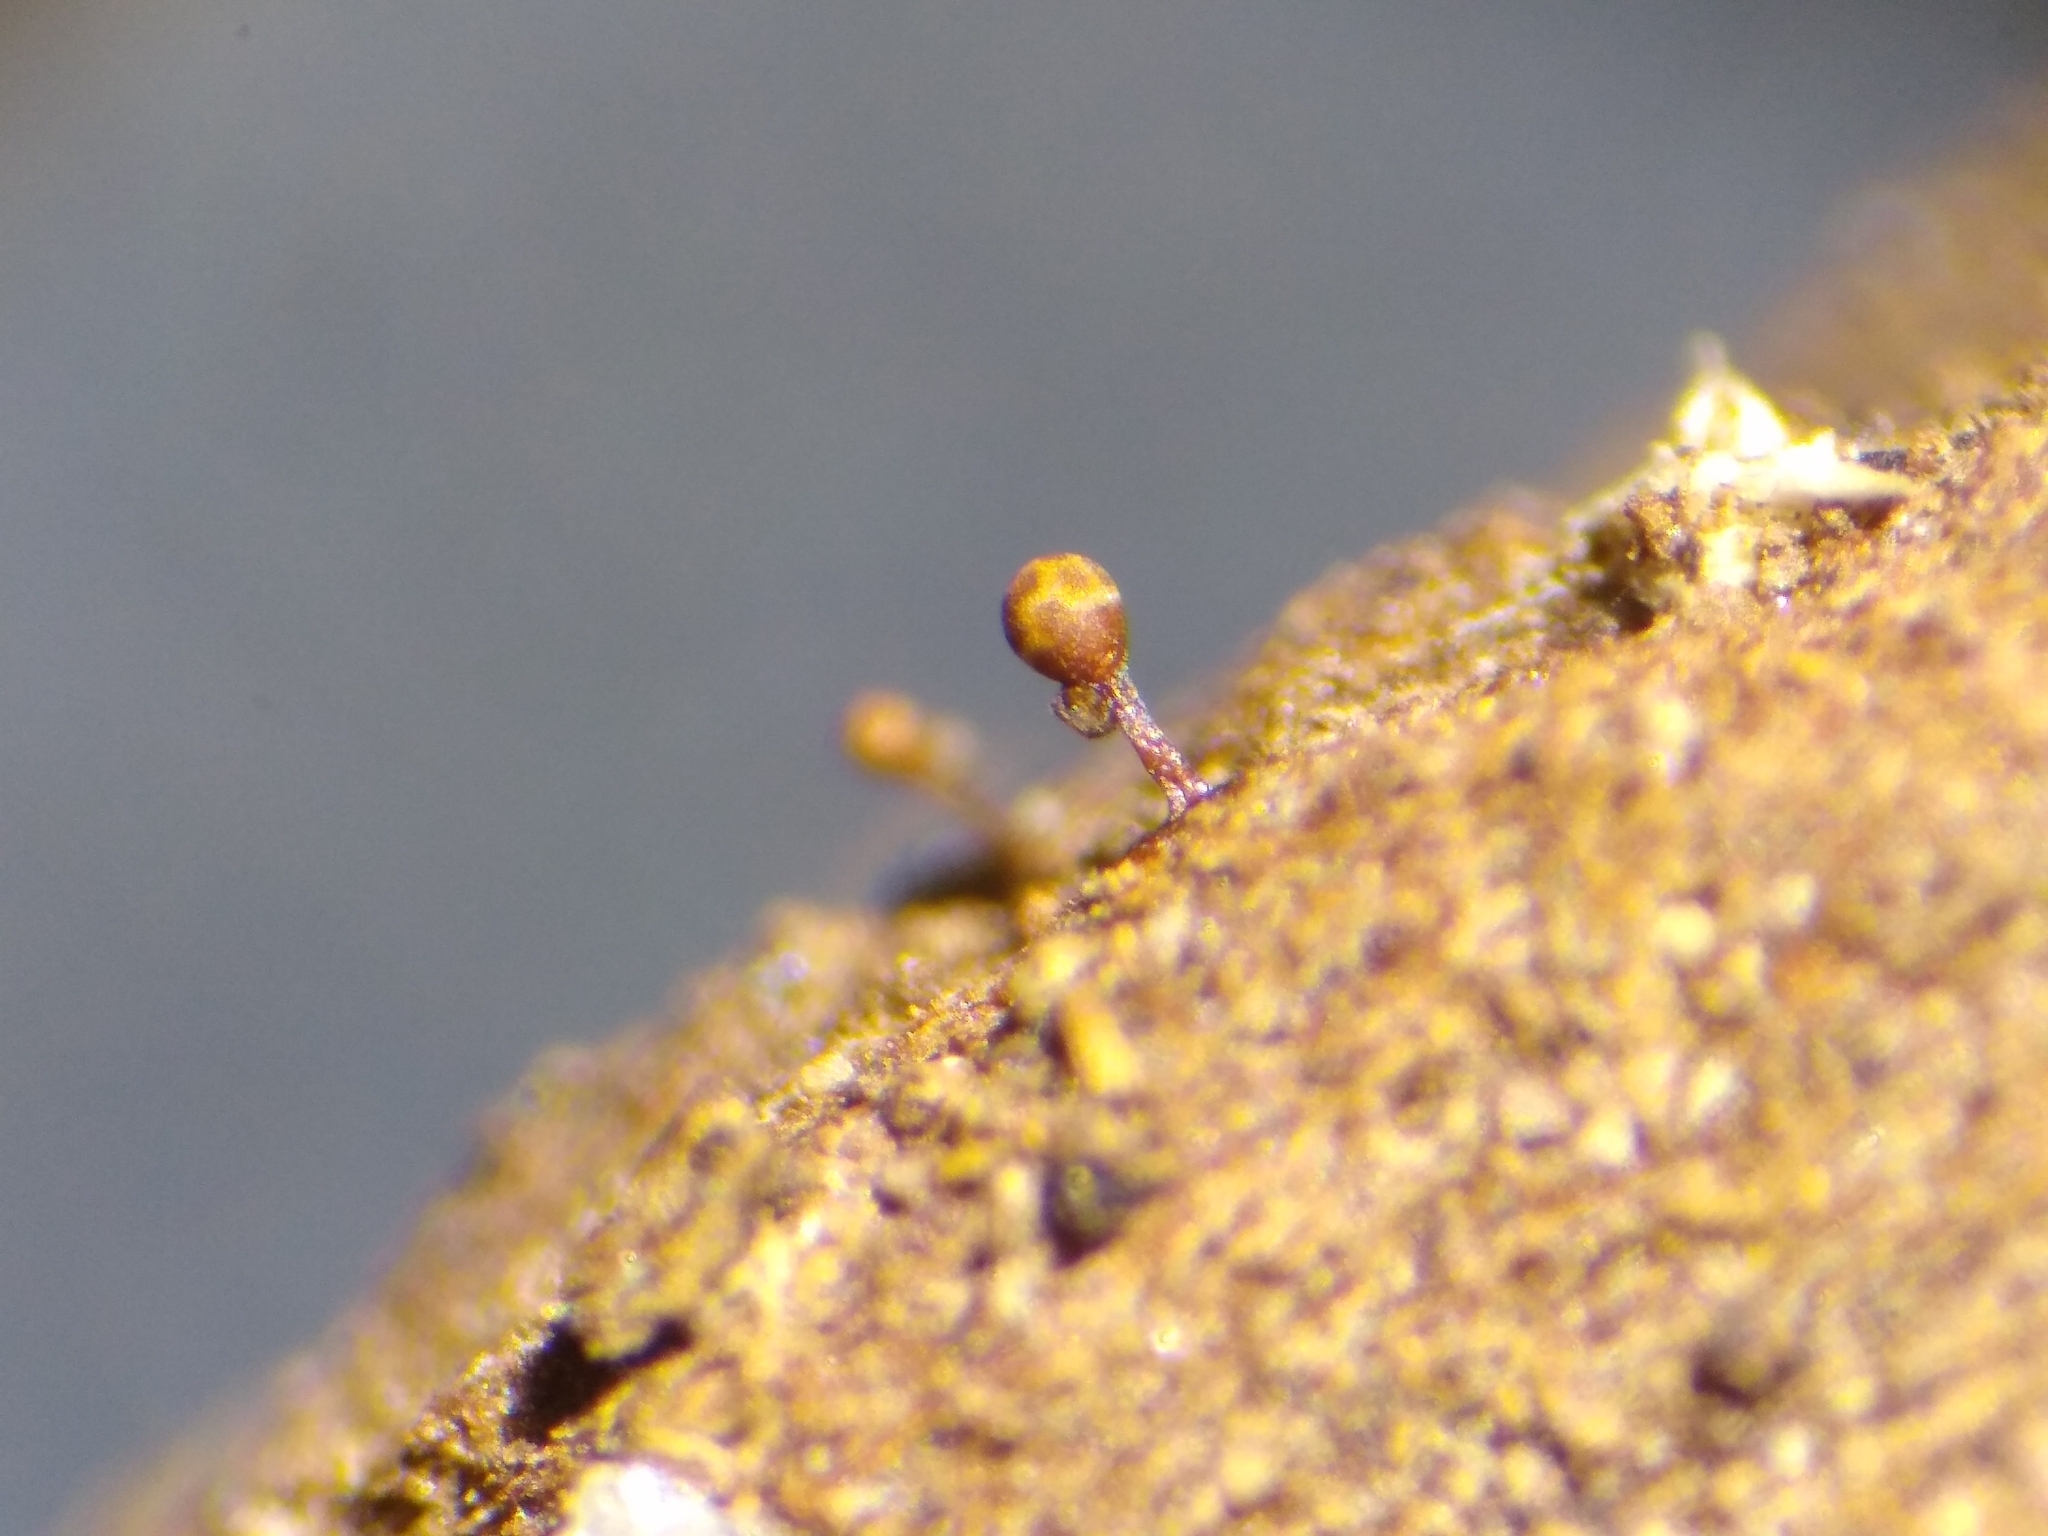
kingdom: Protozoa
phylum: Mycetozoa
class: Myxomycetes
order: Trichiales
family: Trichiaceae
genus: Trichia
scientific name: Trichia munda
